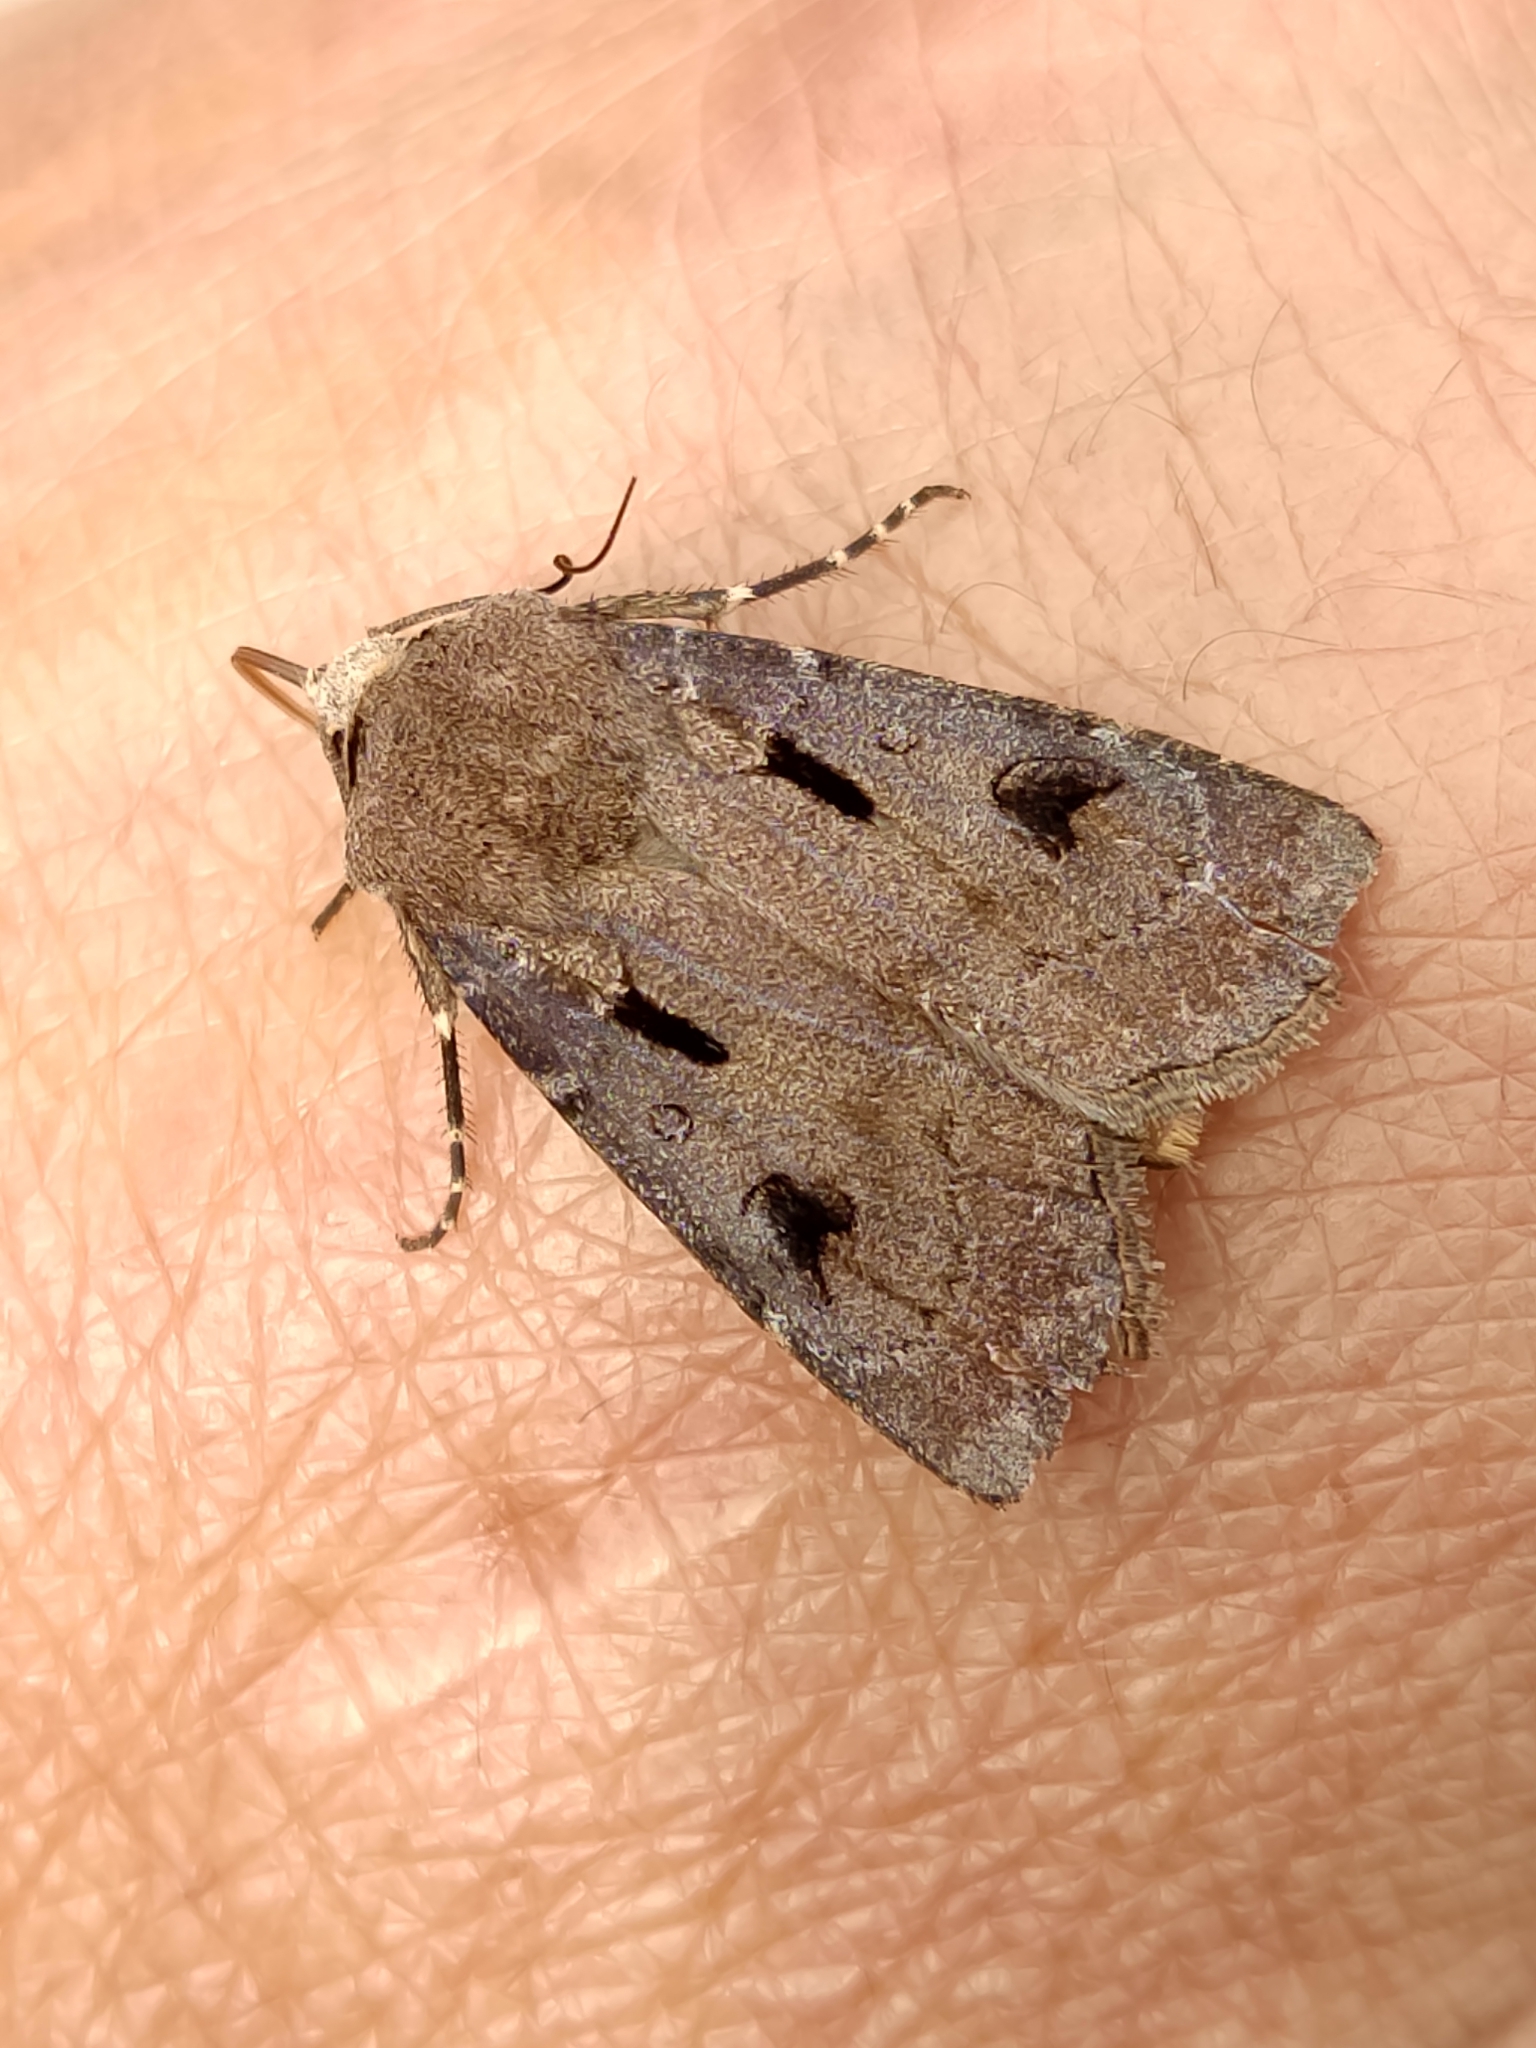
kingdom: Animalia
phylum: Arthropoda
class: Insecta
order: Lepidoptera
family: Noctuidae
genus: Agrotis
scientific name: Agrotis exclamationis
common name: Heart and dart
